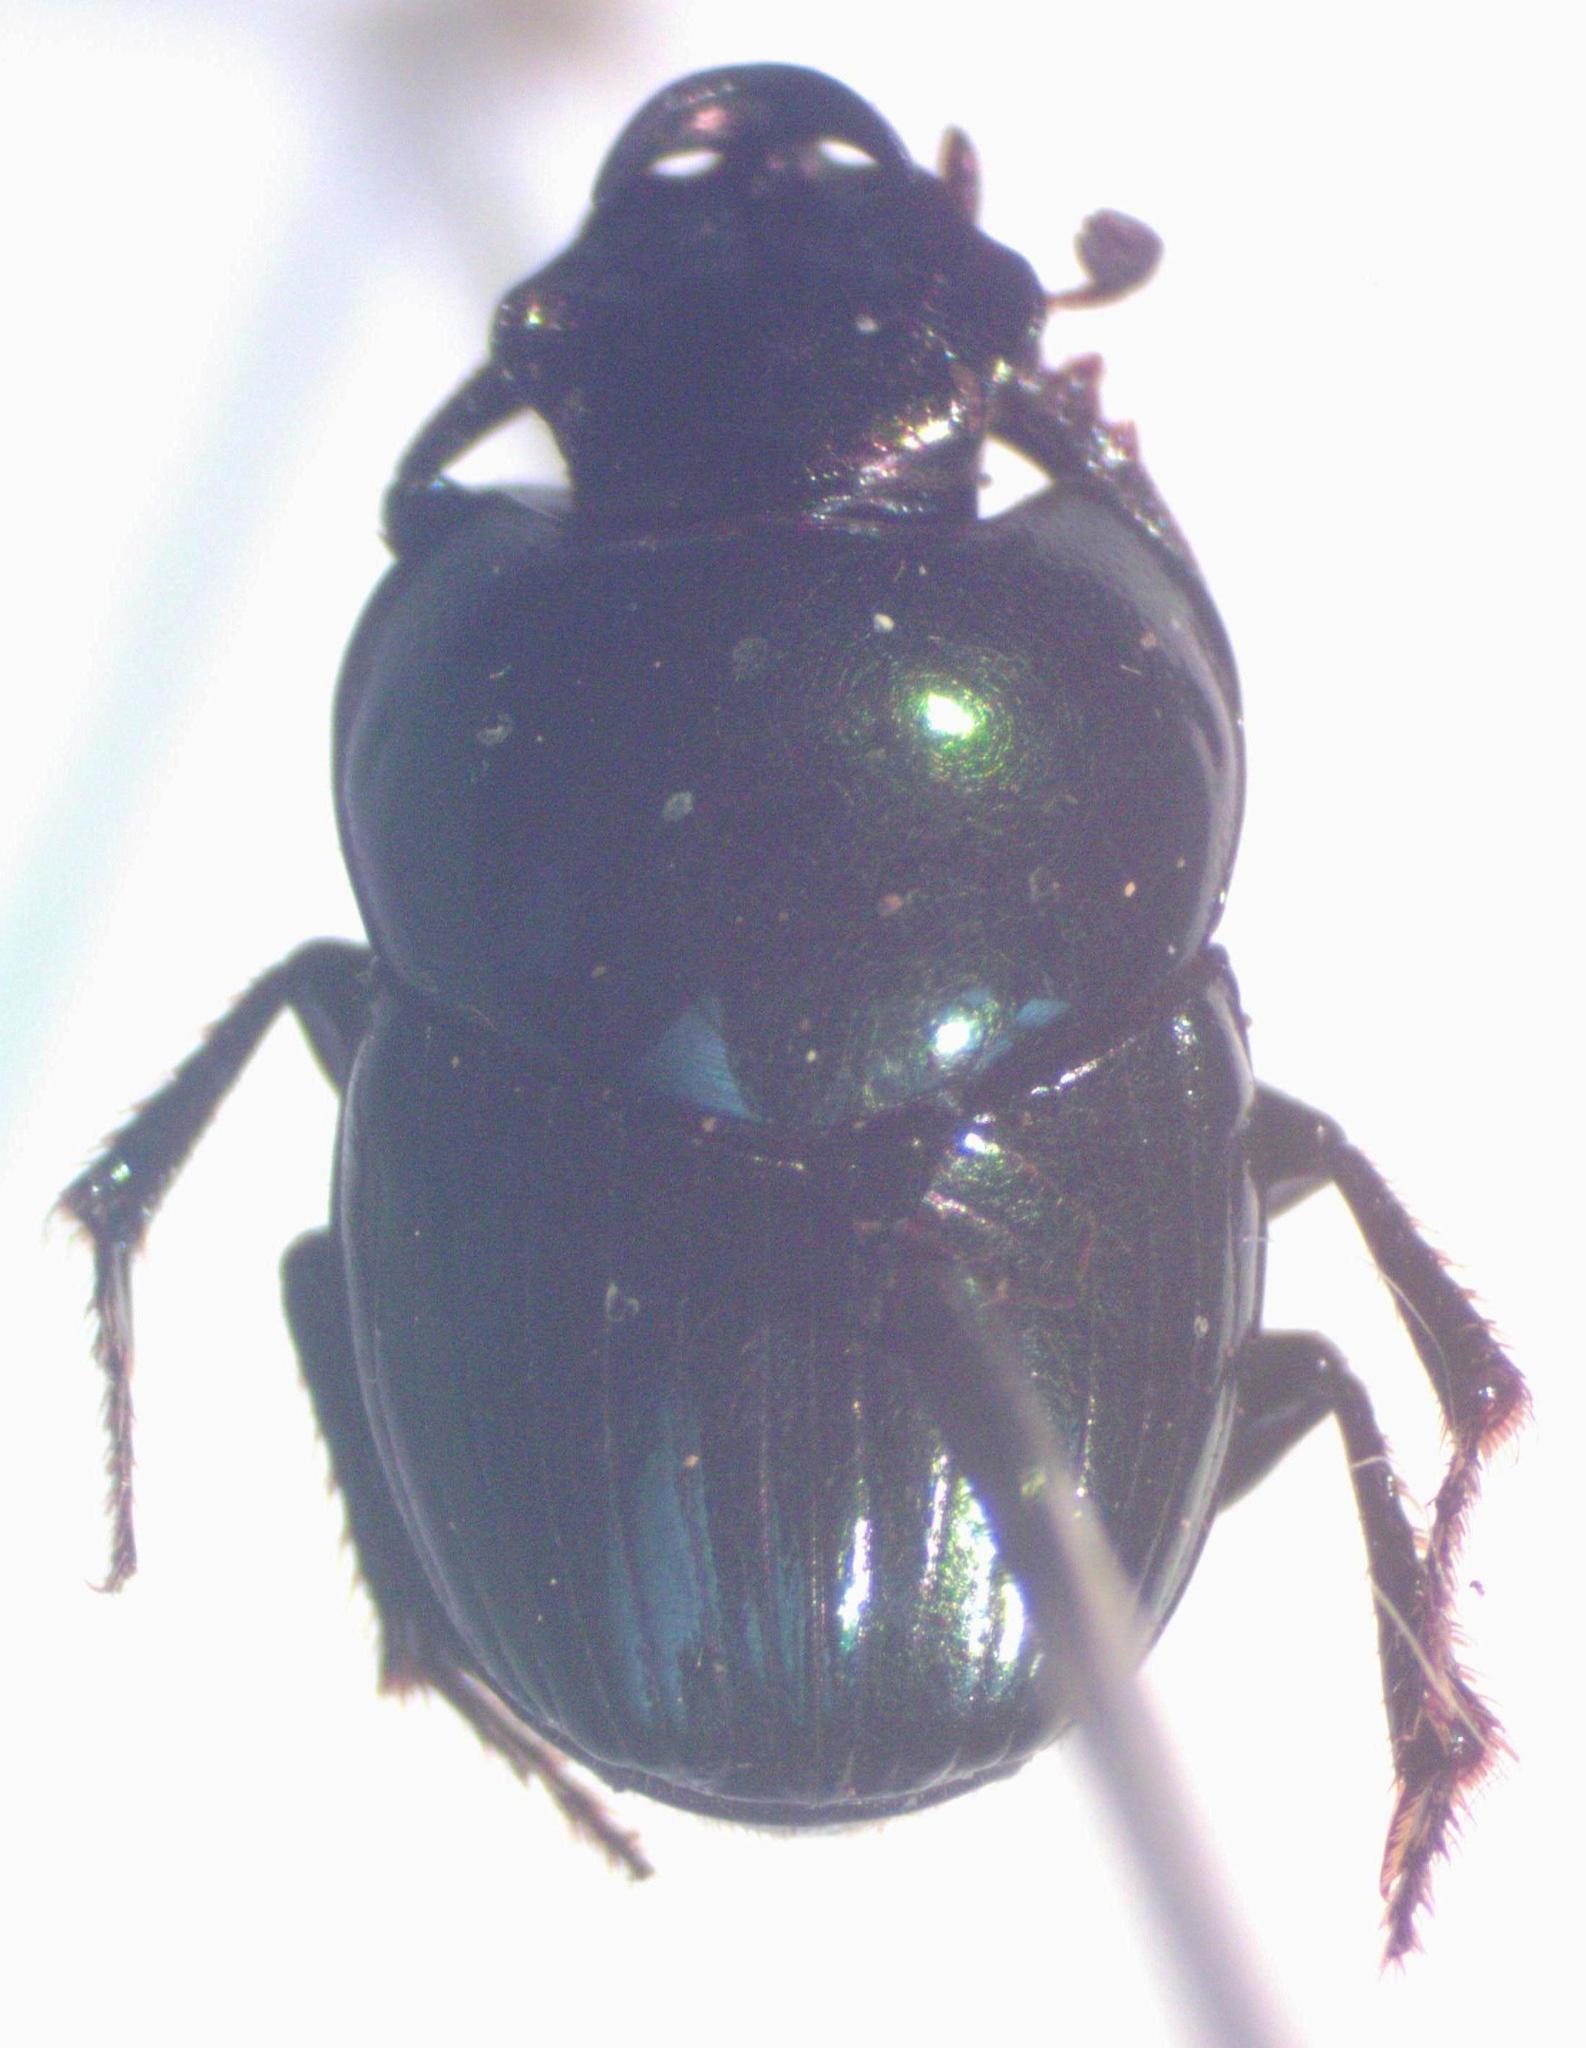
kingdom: Animalia
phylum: Arthropoda
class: Insecta
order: Coleoptera
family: Scarabaeidae
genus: Onthophagus
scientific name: Onthophagus tapirus
